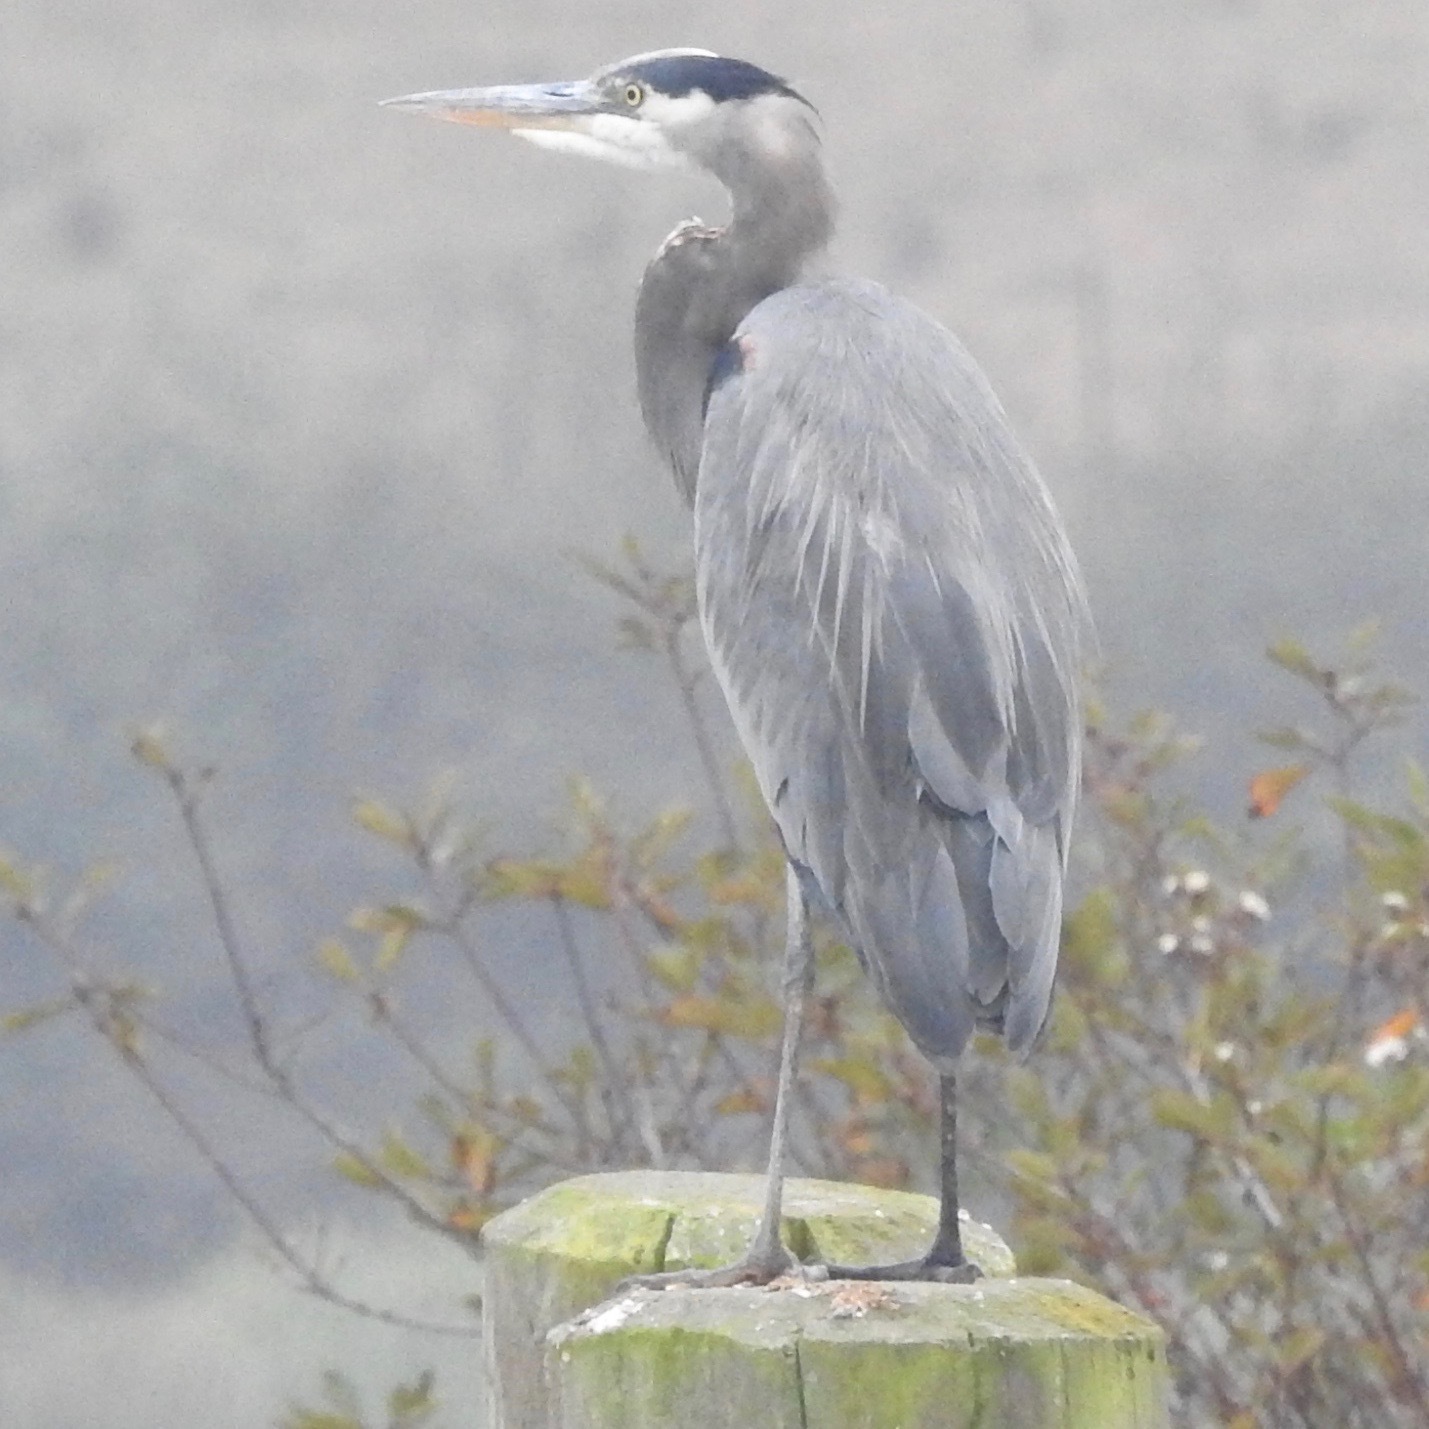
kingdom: Animalia
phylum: Chordata
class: Aves
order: Pelecaniformes
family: Ardeidae
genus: Ardea
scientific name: Ardea herodias
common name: Great blue heron
